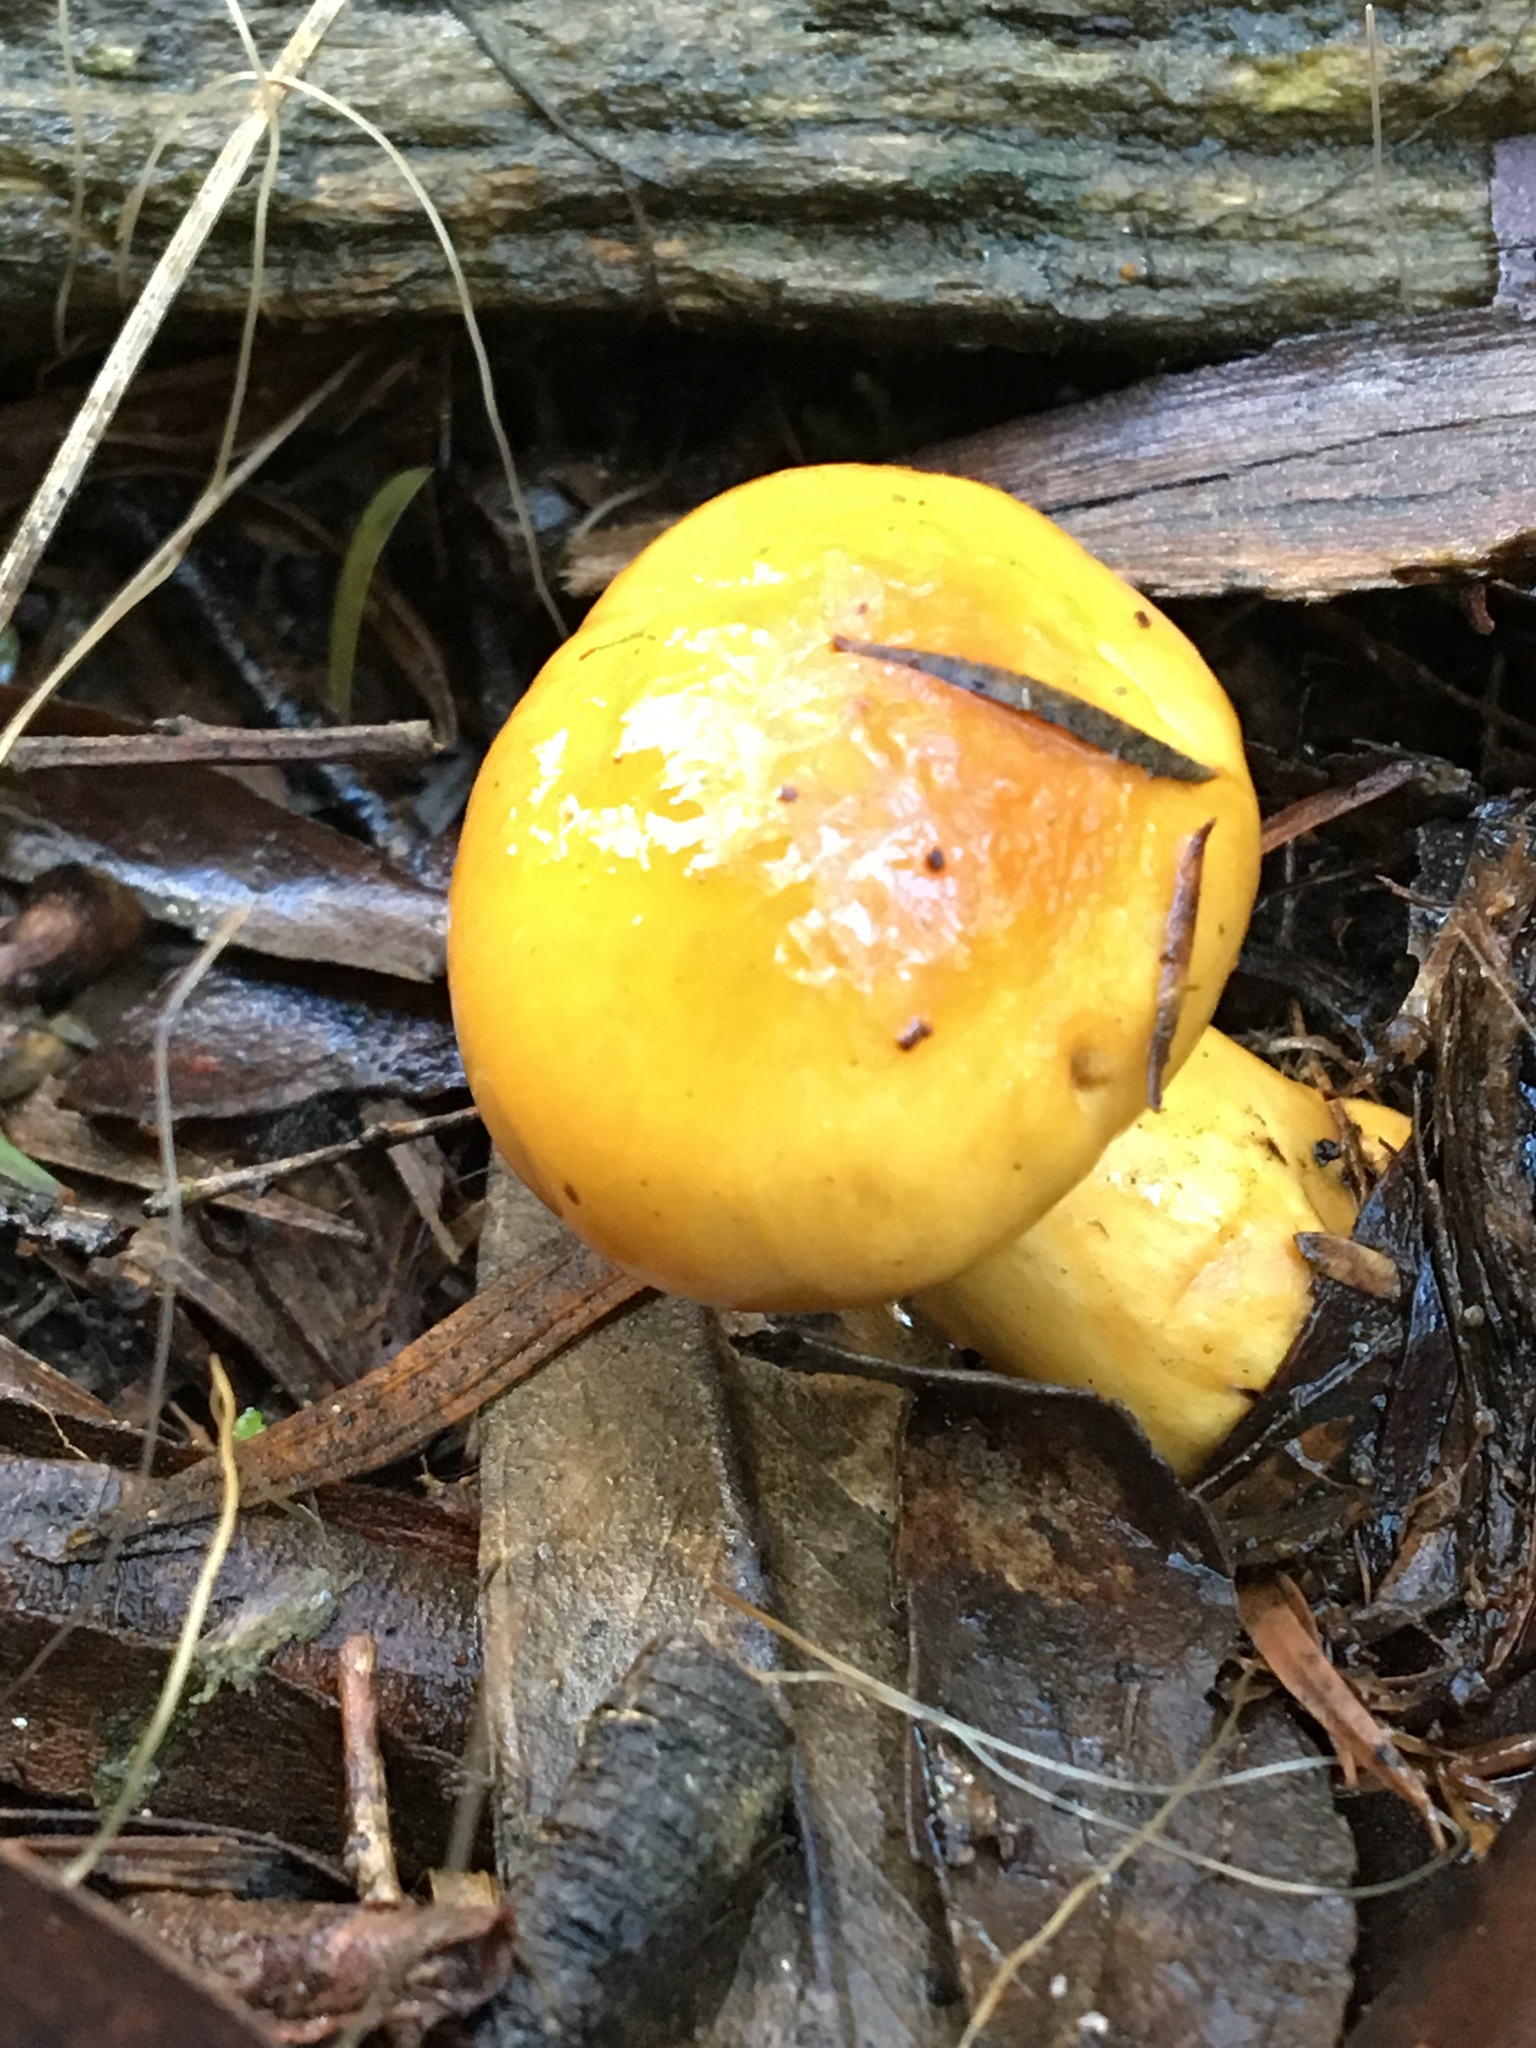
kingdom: Fungi
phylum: Basidiomycota
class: Agaricomycetes
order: Agaricales
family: Cortinariaceae
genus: Cortinarius
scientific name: Cortinarius sinapicolor
